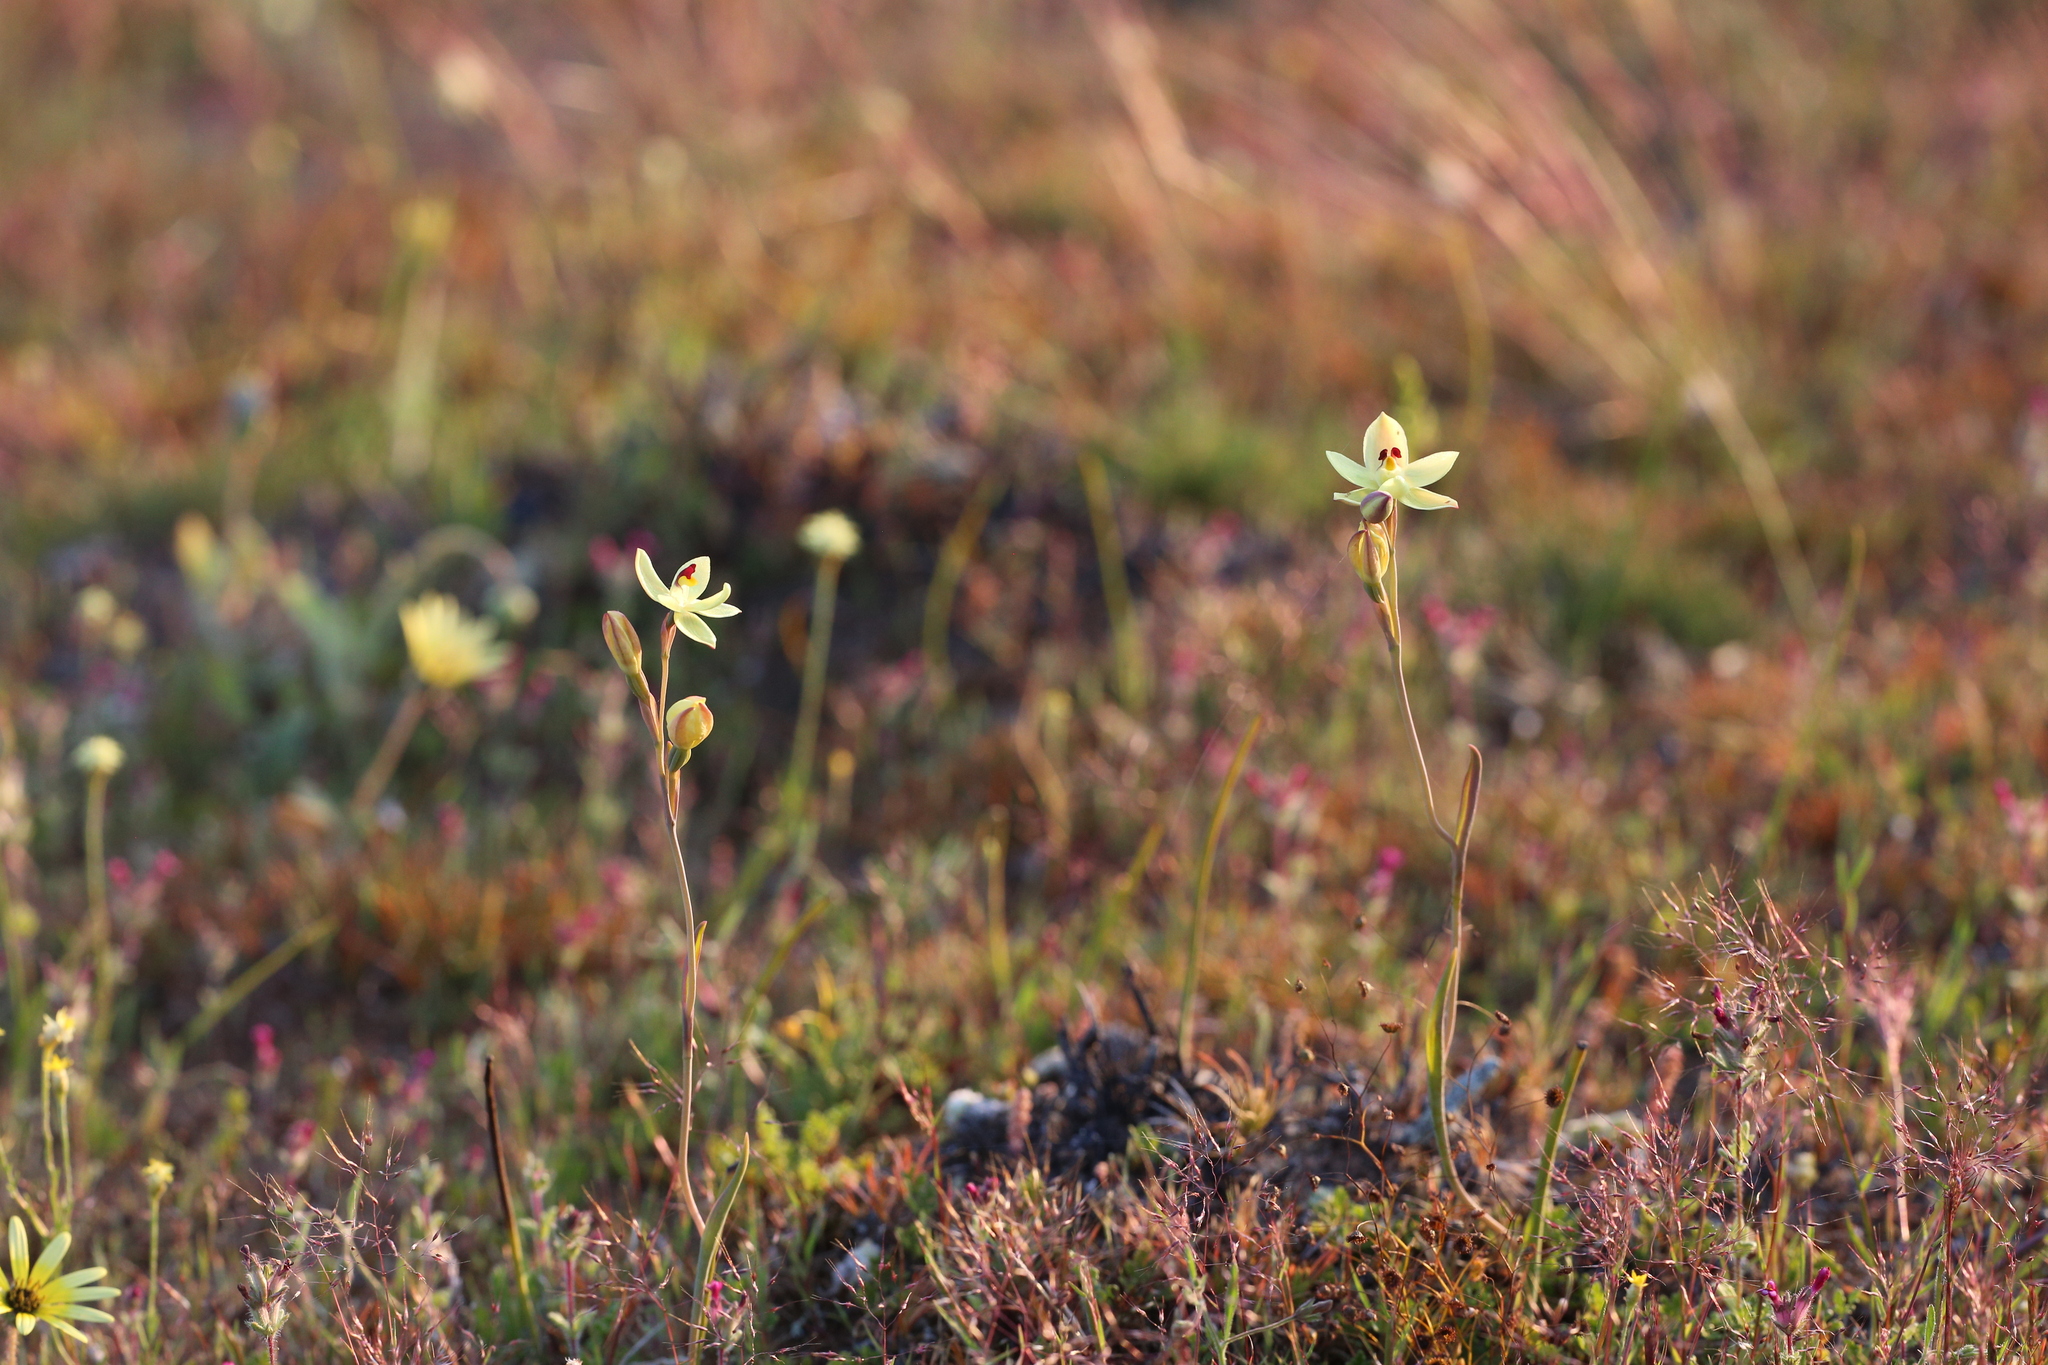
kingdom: Plantae
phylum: Tracheophyta
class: Liliopsida
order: Asparagales
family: Orchidaceae
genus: Thelymitra
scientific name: Thelymitra antennifera
